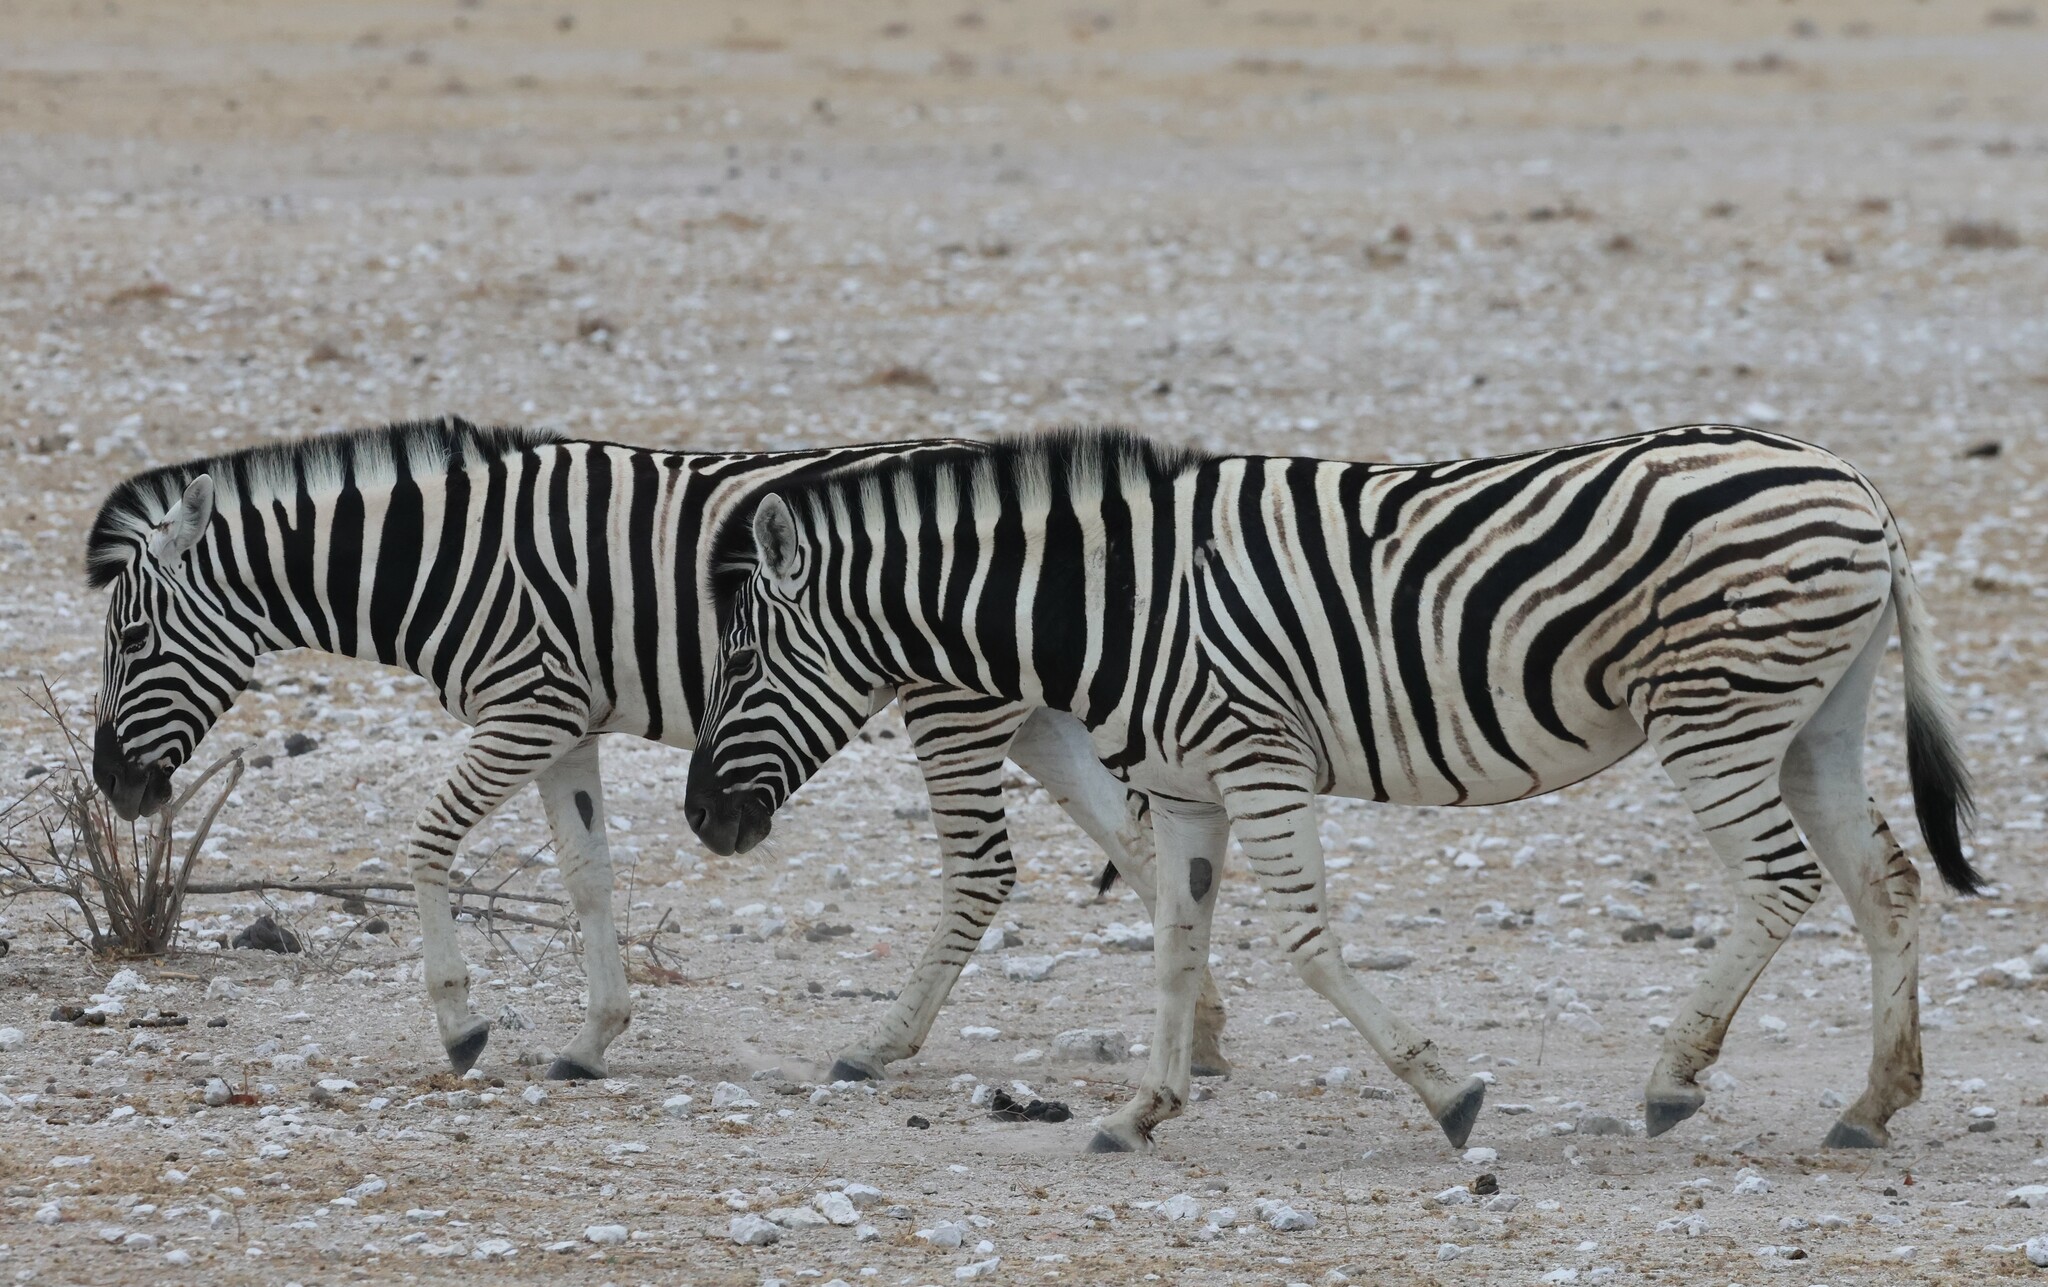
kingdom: Animalia
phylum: Chordata
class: Mammalia
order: Perissodactyla
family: Equidae
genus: Equus
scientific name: Equus quagga
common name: Plains zebra
